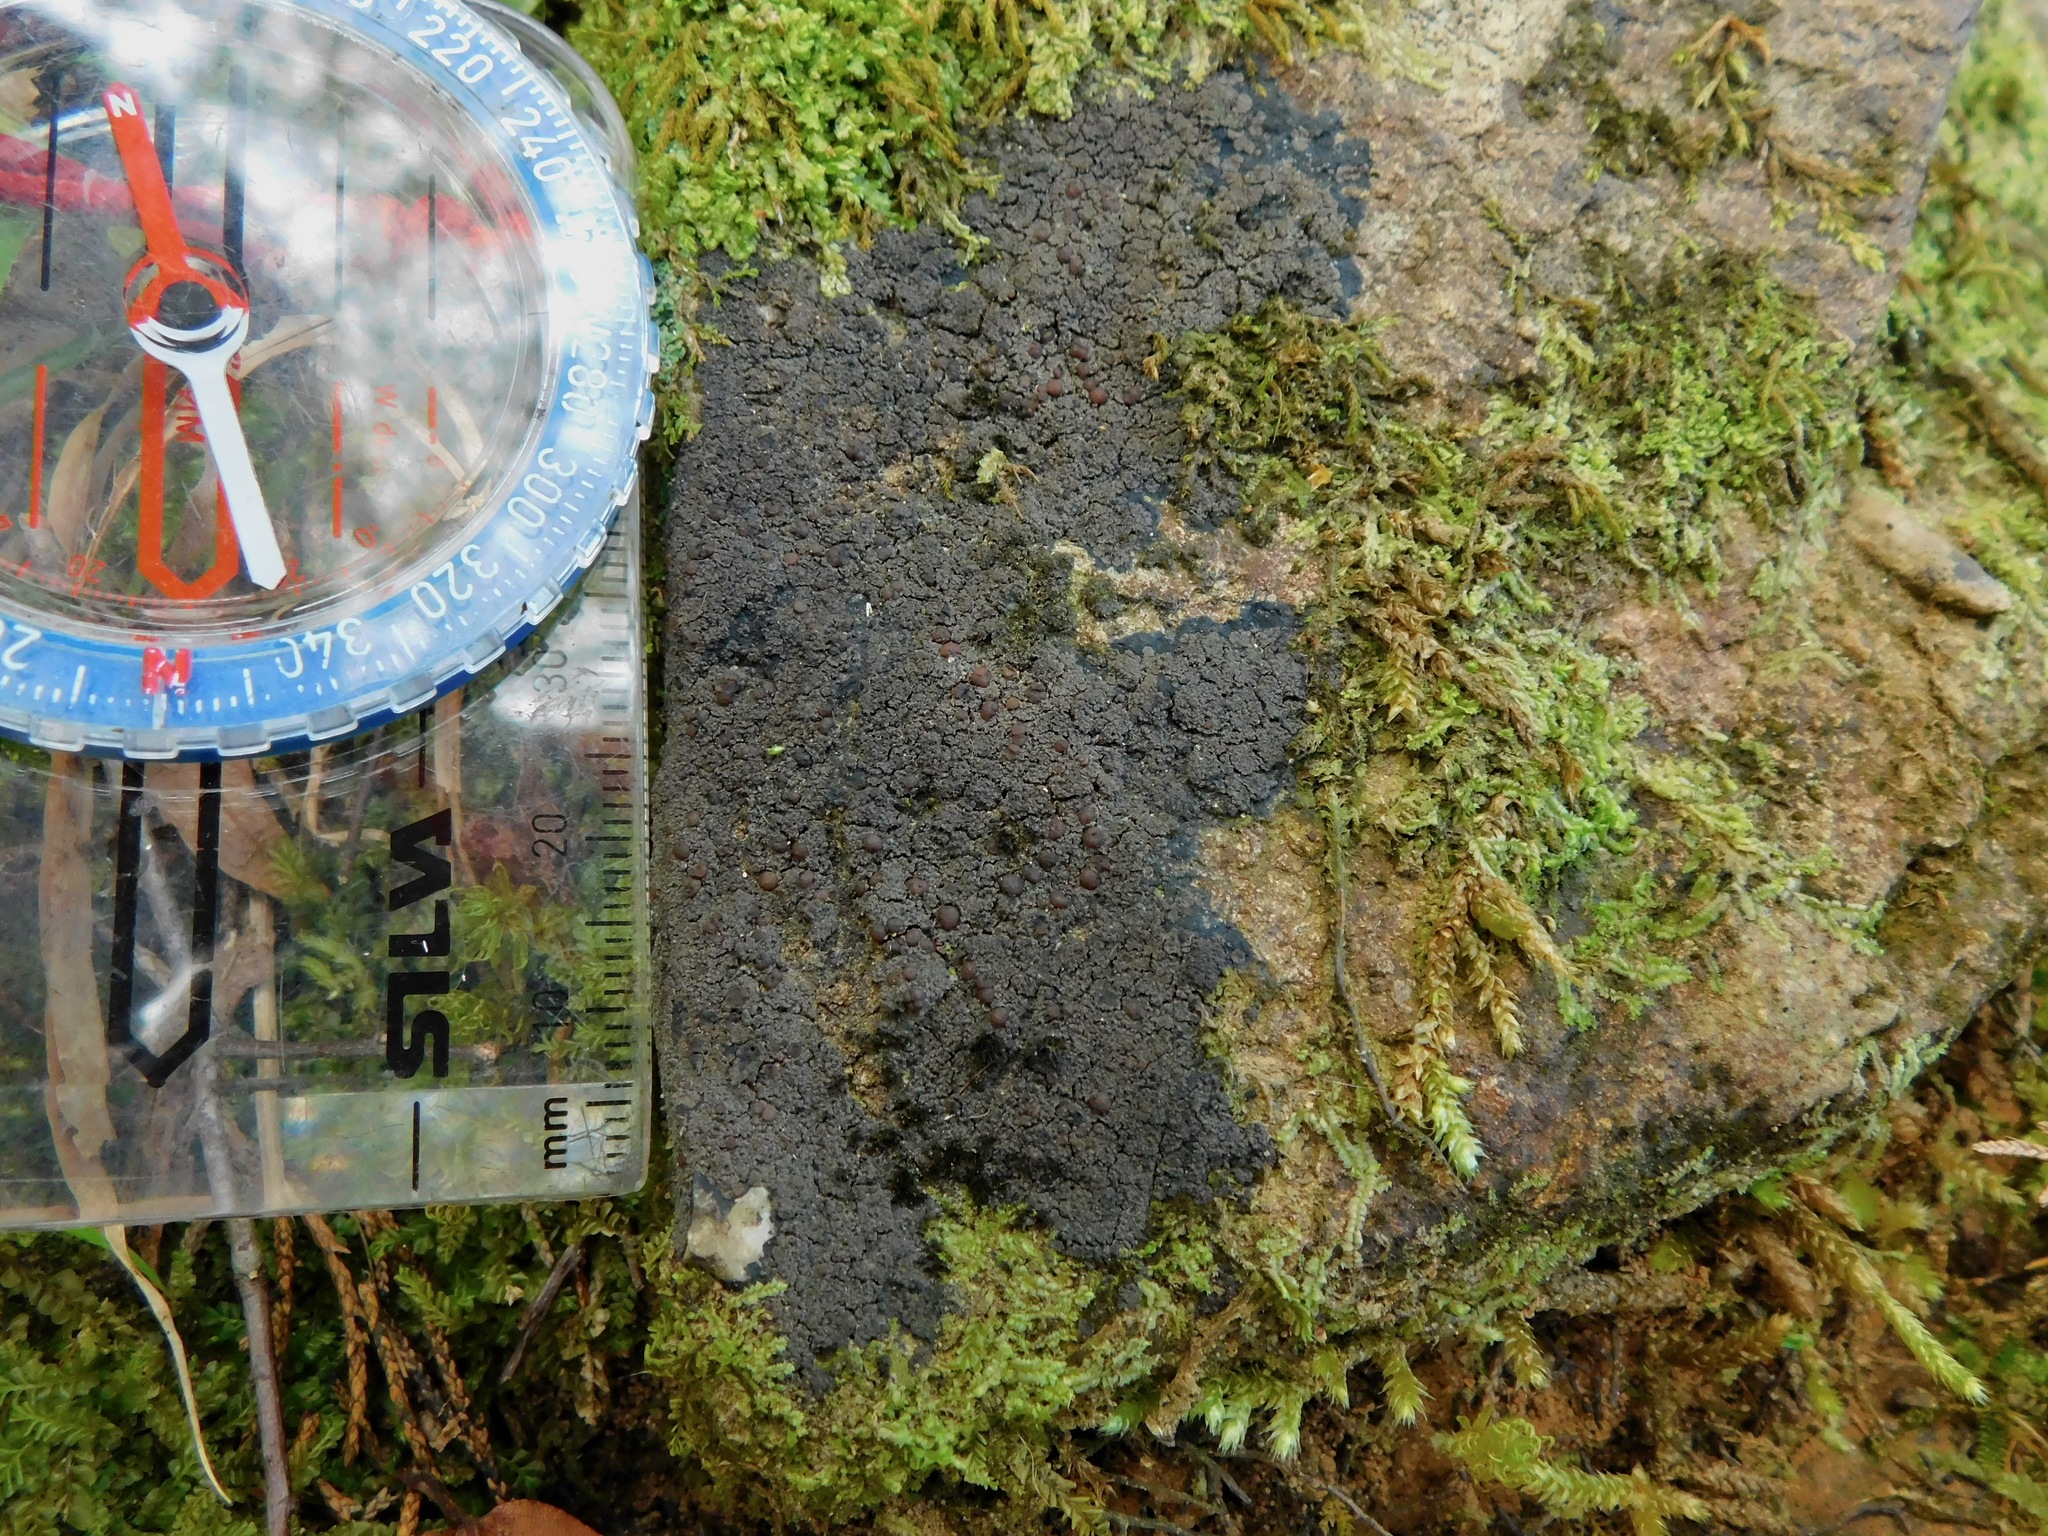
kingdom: Fungi
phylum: Ascomycota
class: Lecanoromycetes
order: Peltigerales
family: Vahliellaceae
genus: Vahliella
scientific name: Vahliella leucophaea
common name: Rock shingle lichen
